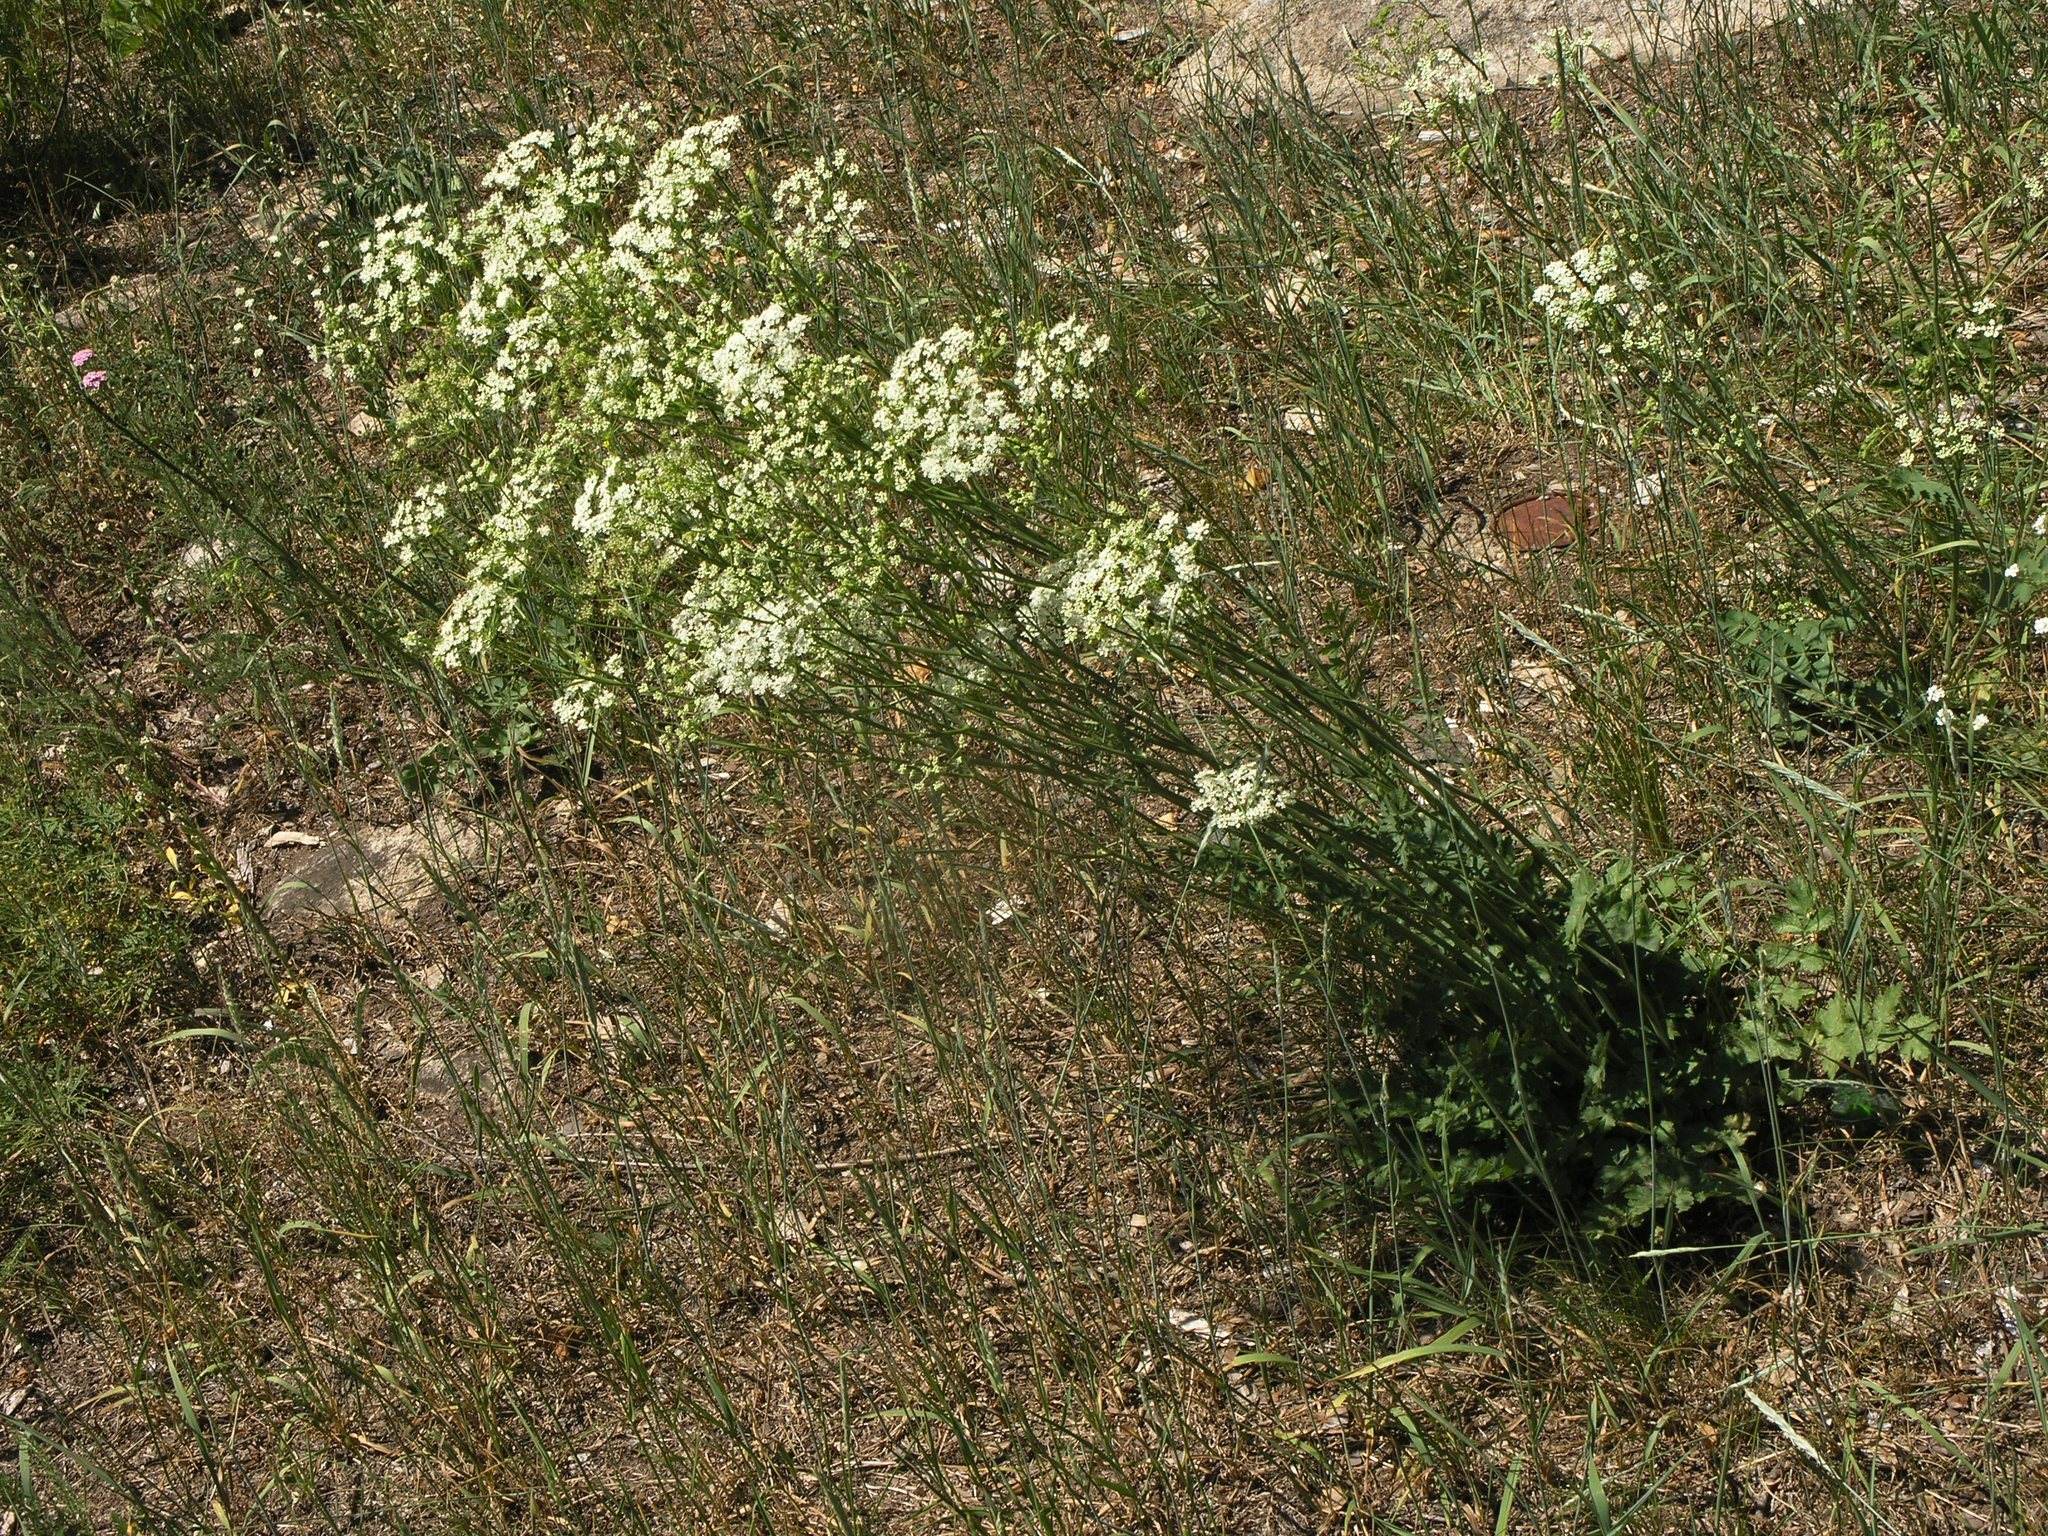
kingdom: Plantae
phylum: Tracheophyta
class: Magnoliopsida
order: Apiales
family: Apiaceae
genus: Pimpinella
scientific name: Pimpinella saxifraga
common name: Burnet-saxifrage
